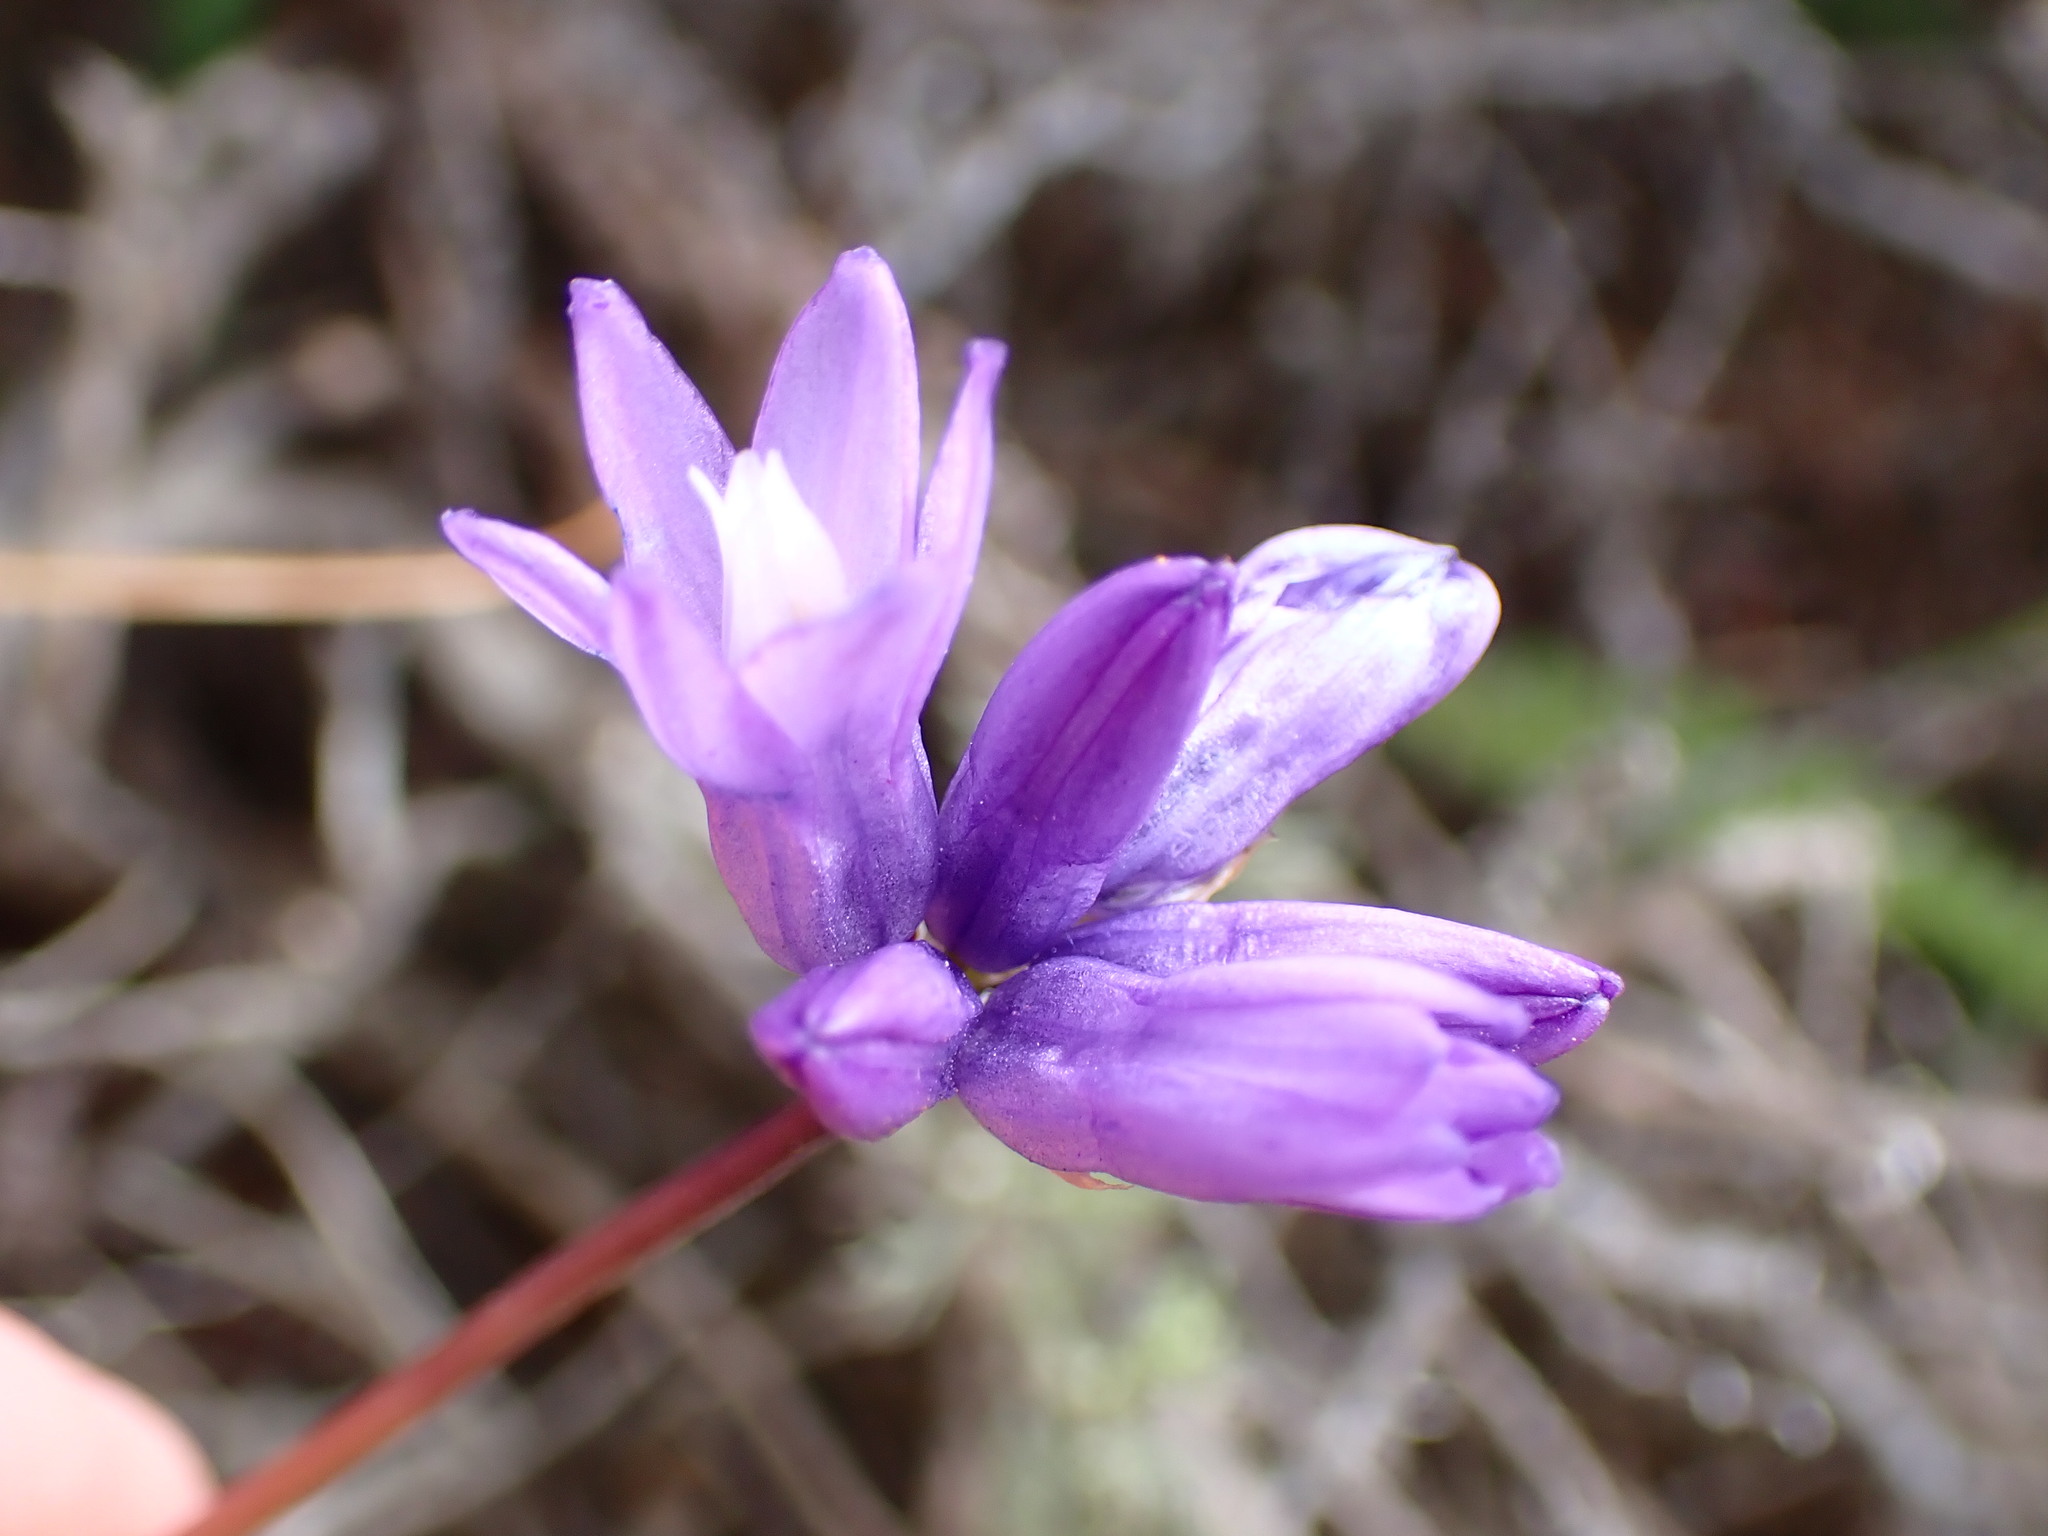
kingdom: Plantae
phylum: Tracheophyta
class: Liliopsida
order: Asparagales
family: Asparagaceae
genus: Dipterostemon
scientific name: Dipterostemon capitatus
